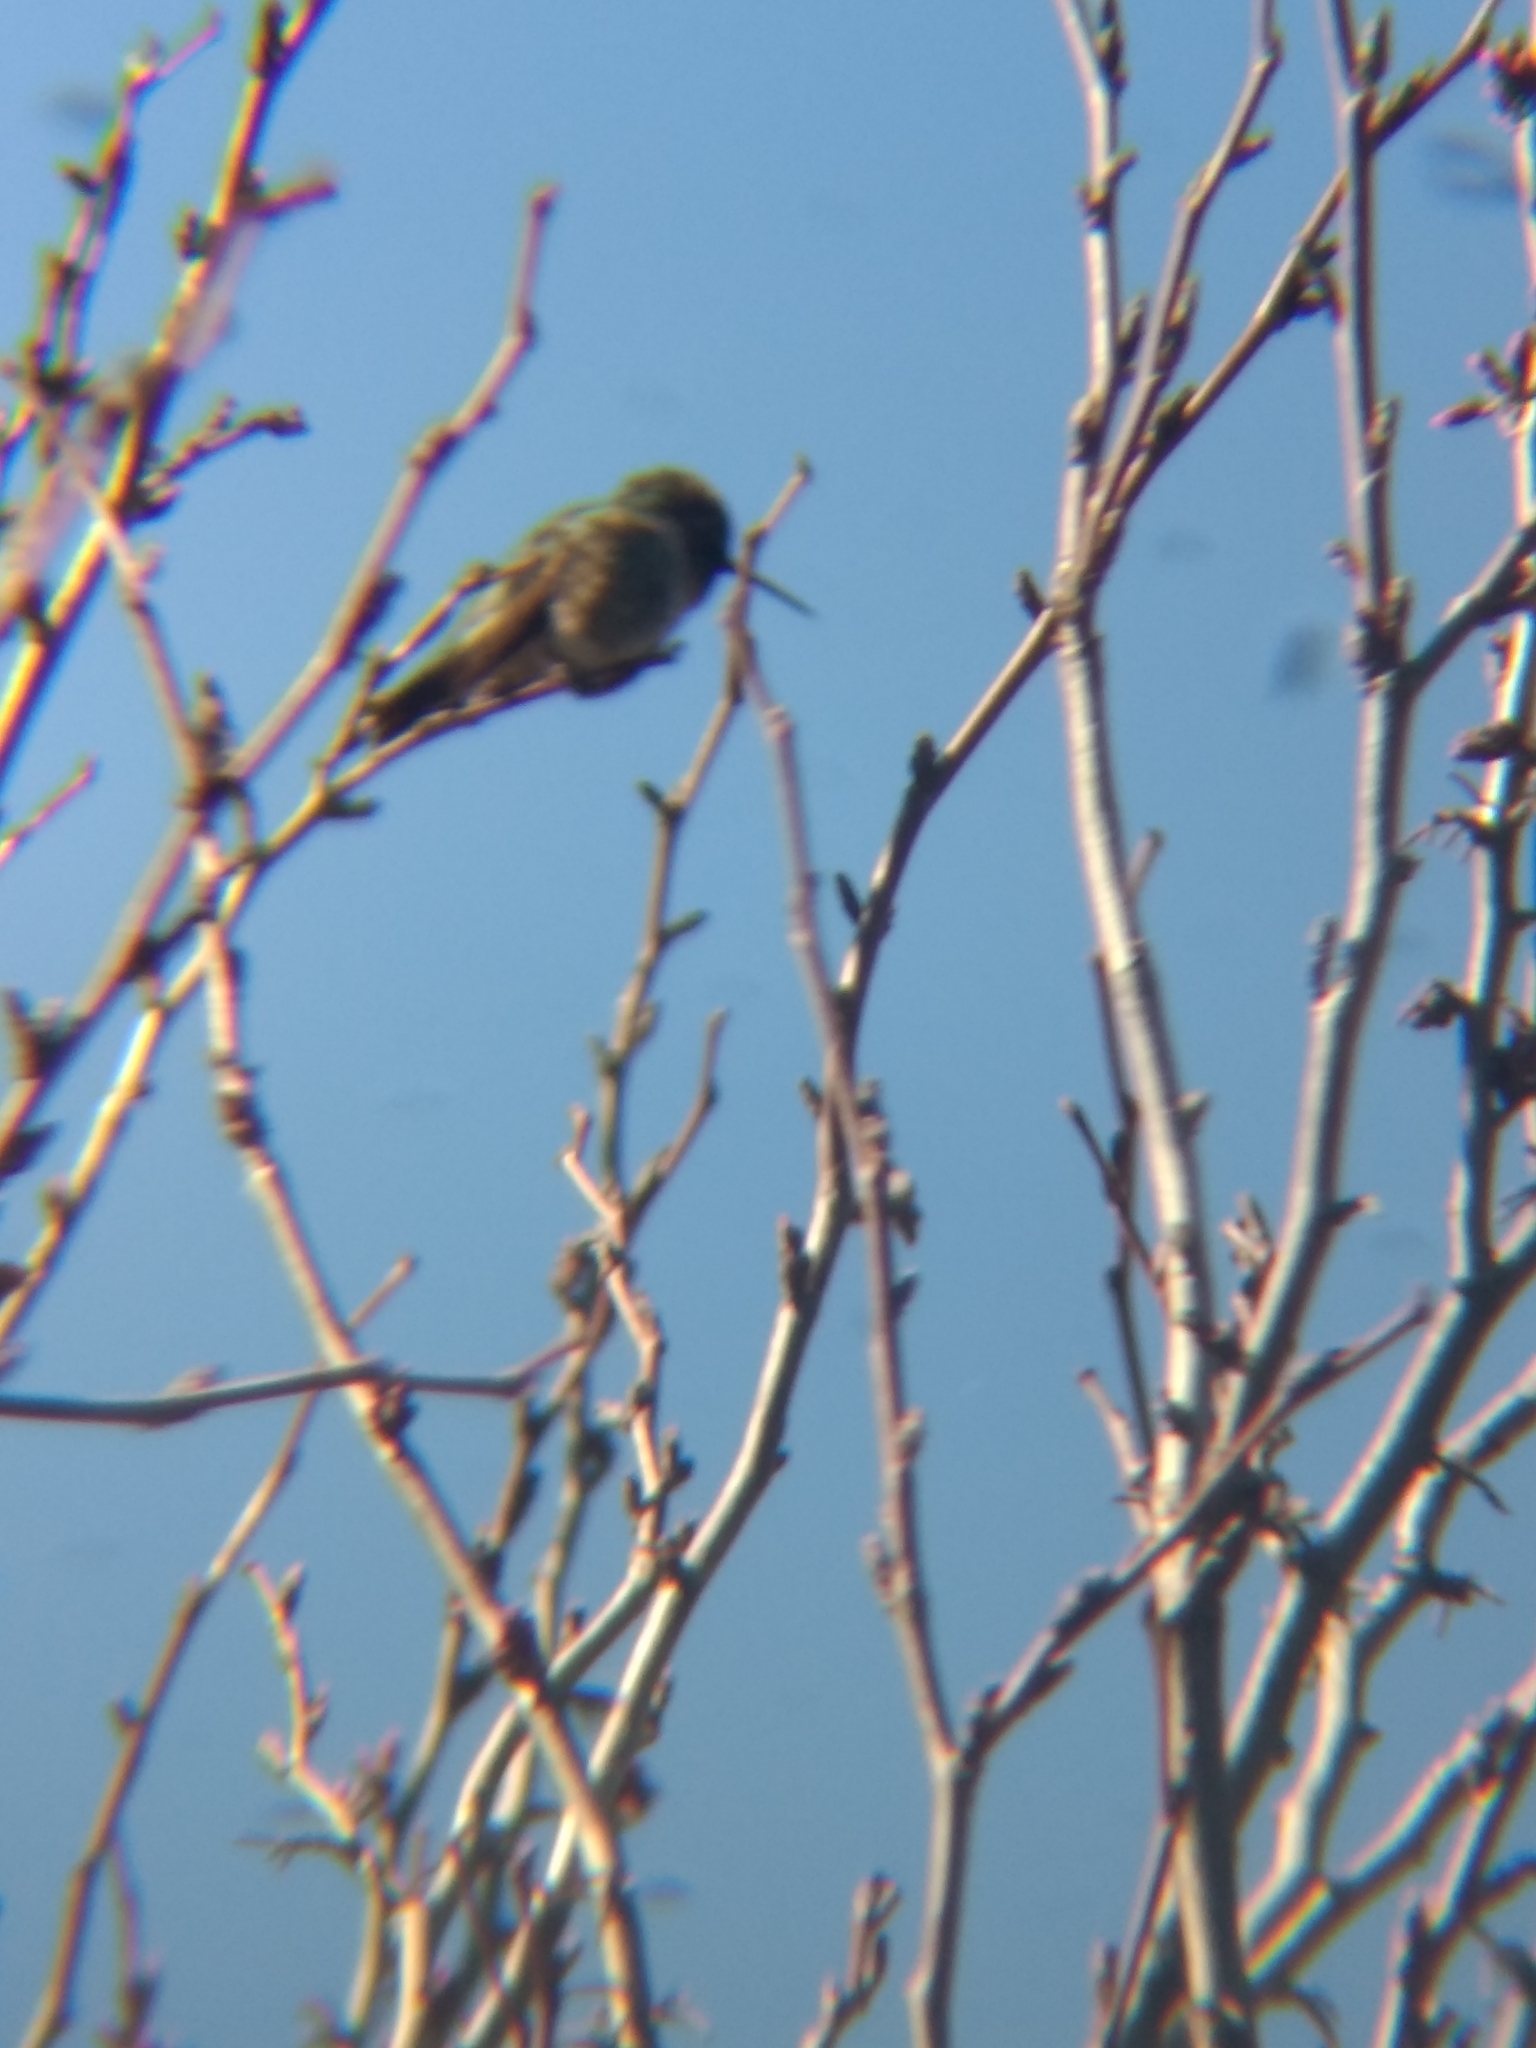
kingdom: Animalia
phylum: Chordata
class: Aves
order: Apodiformes
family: Trochilidae
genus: Calypte
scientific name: Calypte anna
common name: Anna's hummingbird
